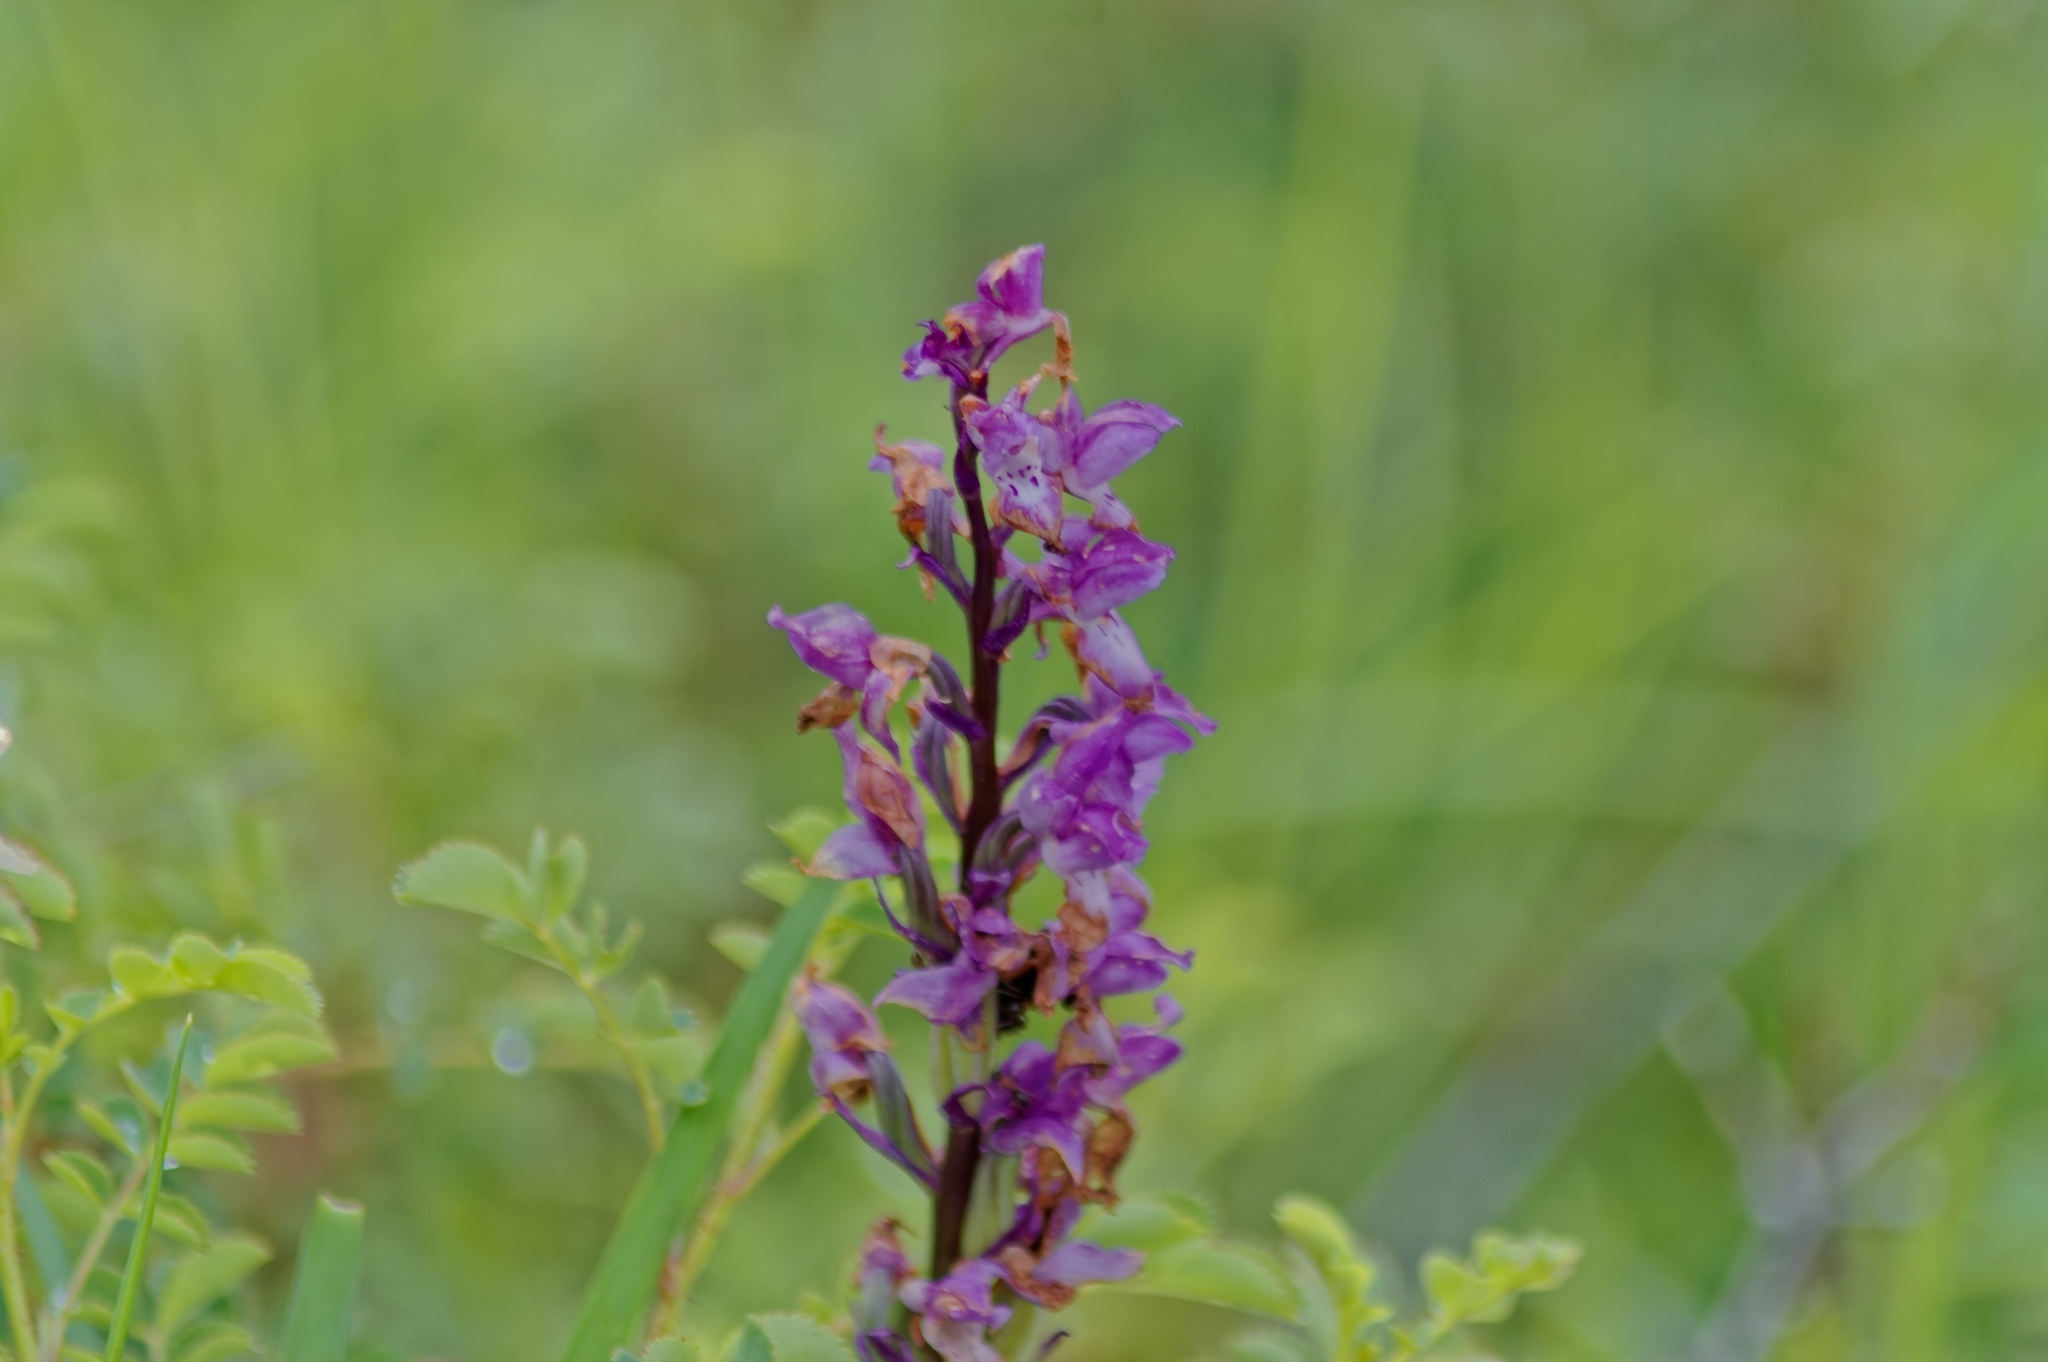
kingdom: Plantae
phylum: Tracheophyta
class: Liliopsida
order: Asparagales
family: Orchidaceae
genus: Orchis
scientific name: Orchis mascula
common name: Early-purple orchid
